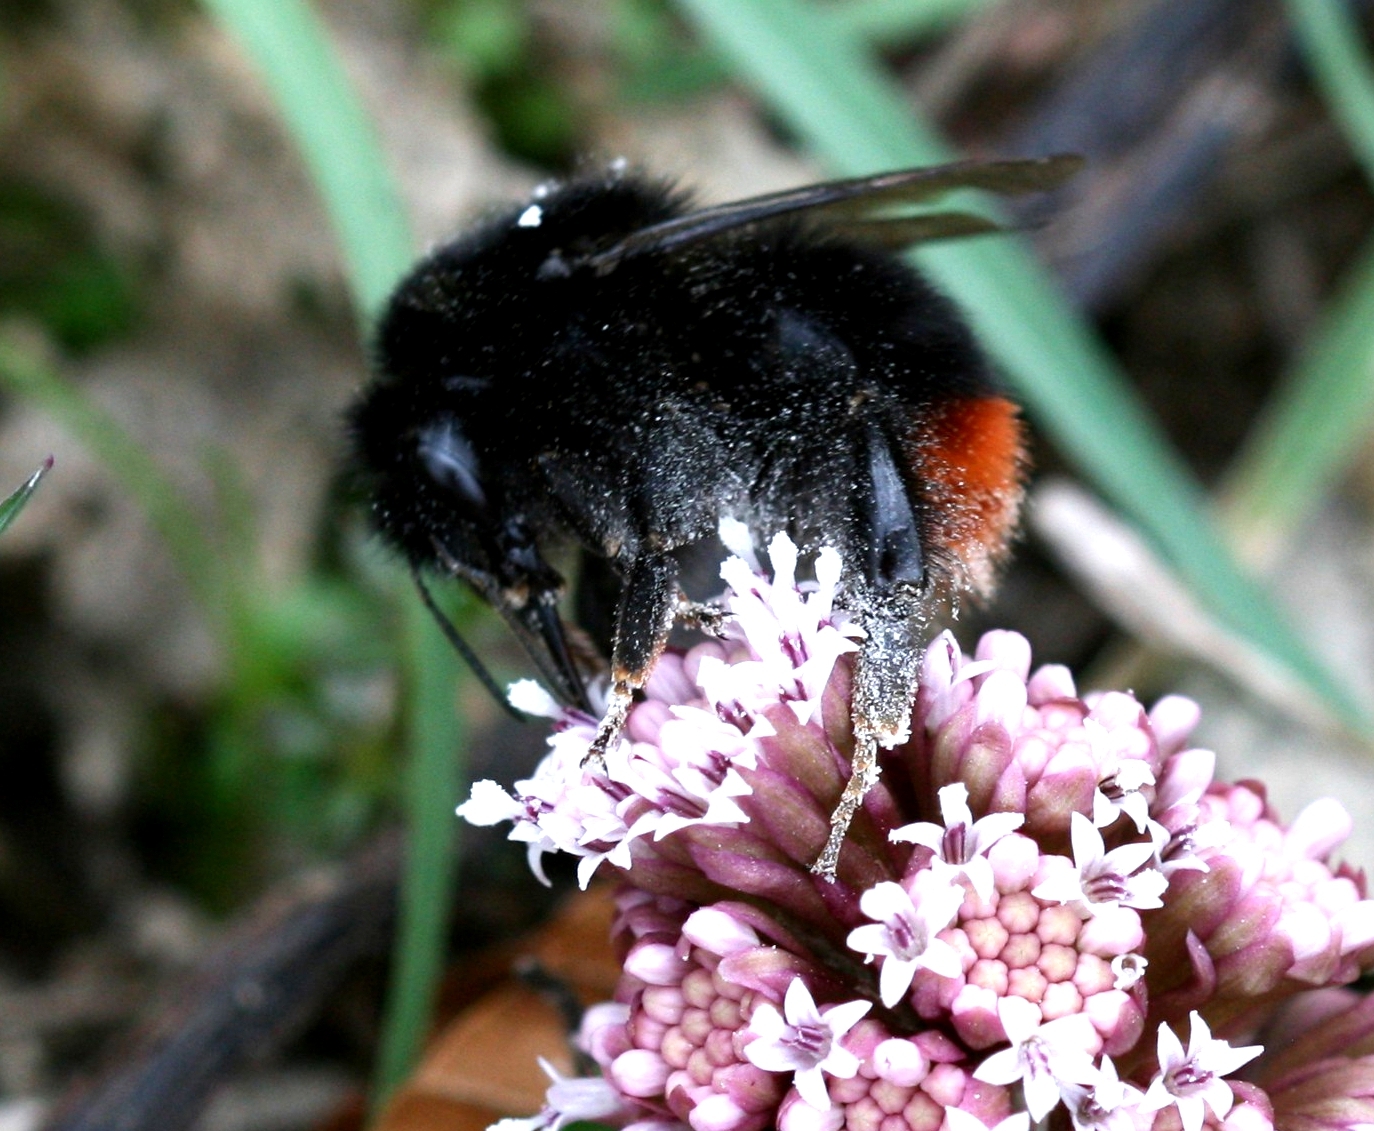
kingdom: Animalia
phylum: Arthropoda
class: Insecta
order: Hymenoptera
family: Apidae
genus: Bombus
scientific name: Bombus lapidarius
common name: Large red-tailed humble-bee
